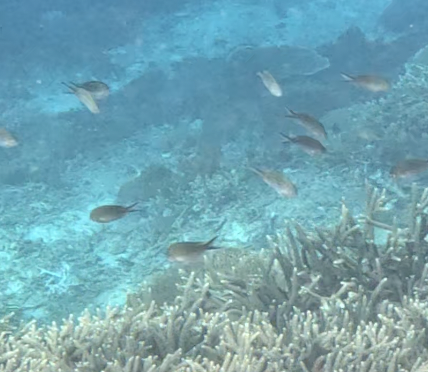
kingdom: Animalia
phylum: Chordata
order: Perciformes
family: Pomacentridae
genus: Chromis
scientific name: Chromis ternatensis
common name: Ternate chromis
